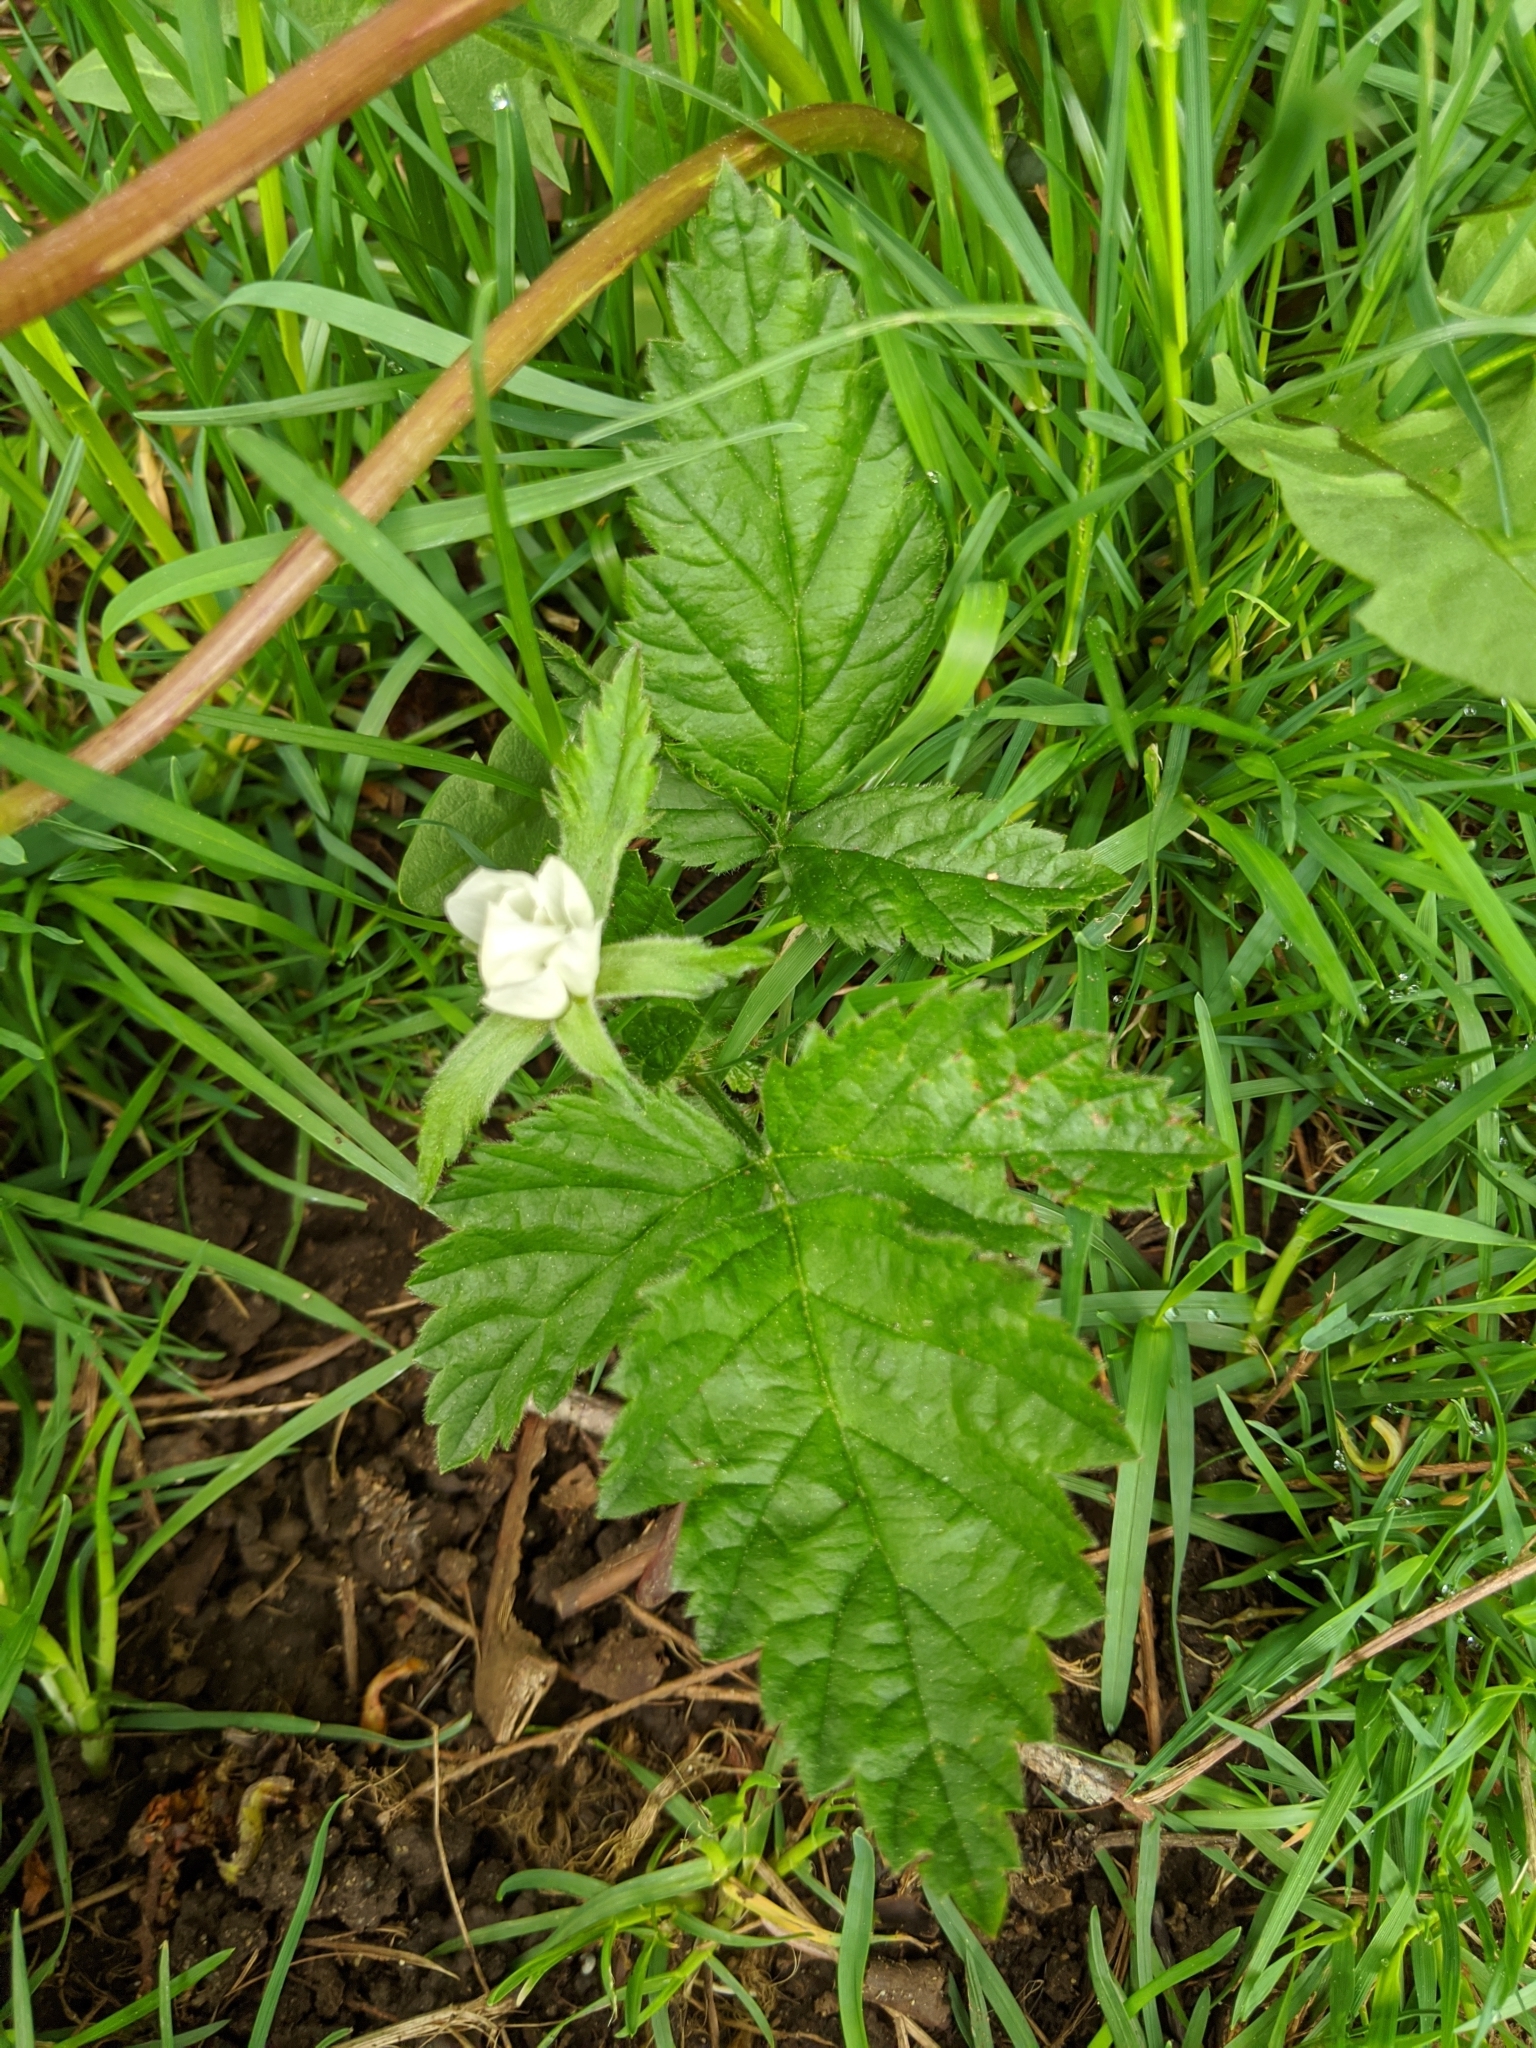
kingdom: Plantae
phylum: Tracheophyta
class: Magnoliopsida
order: Rosales
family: Rosaceae
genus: Rubus
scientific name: Rubus ursinus
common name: Pacific blackberry
